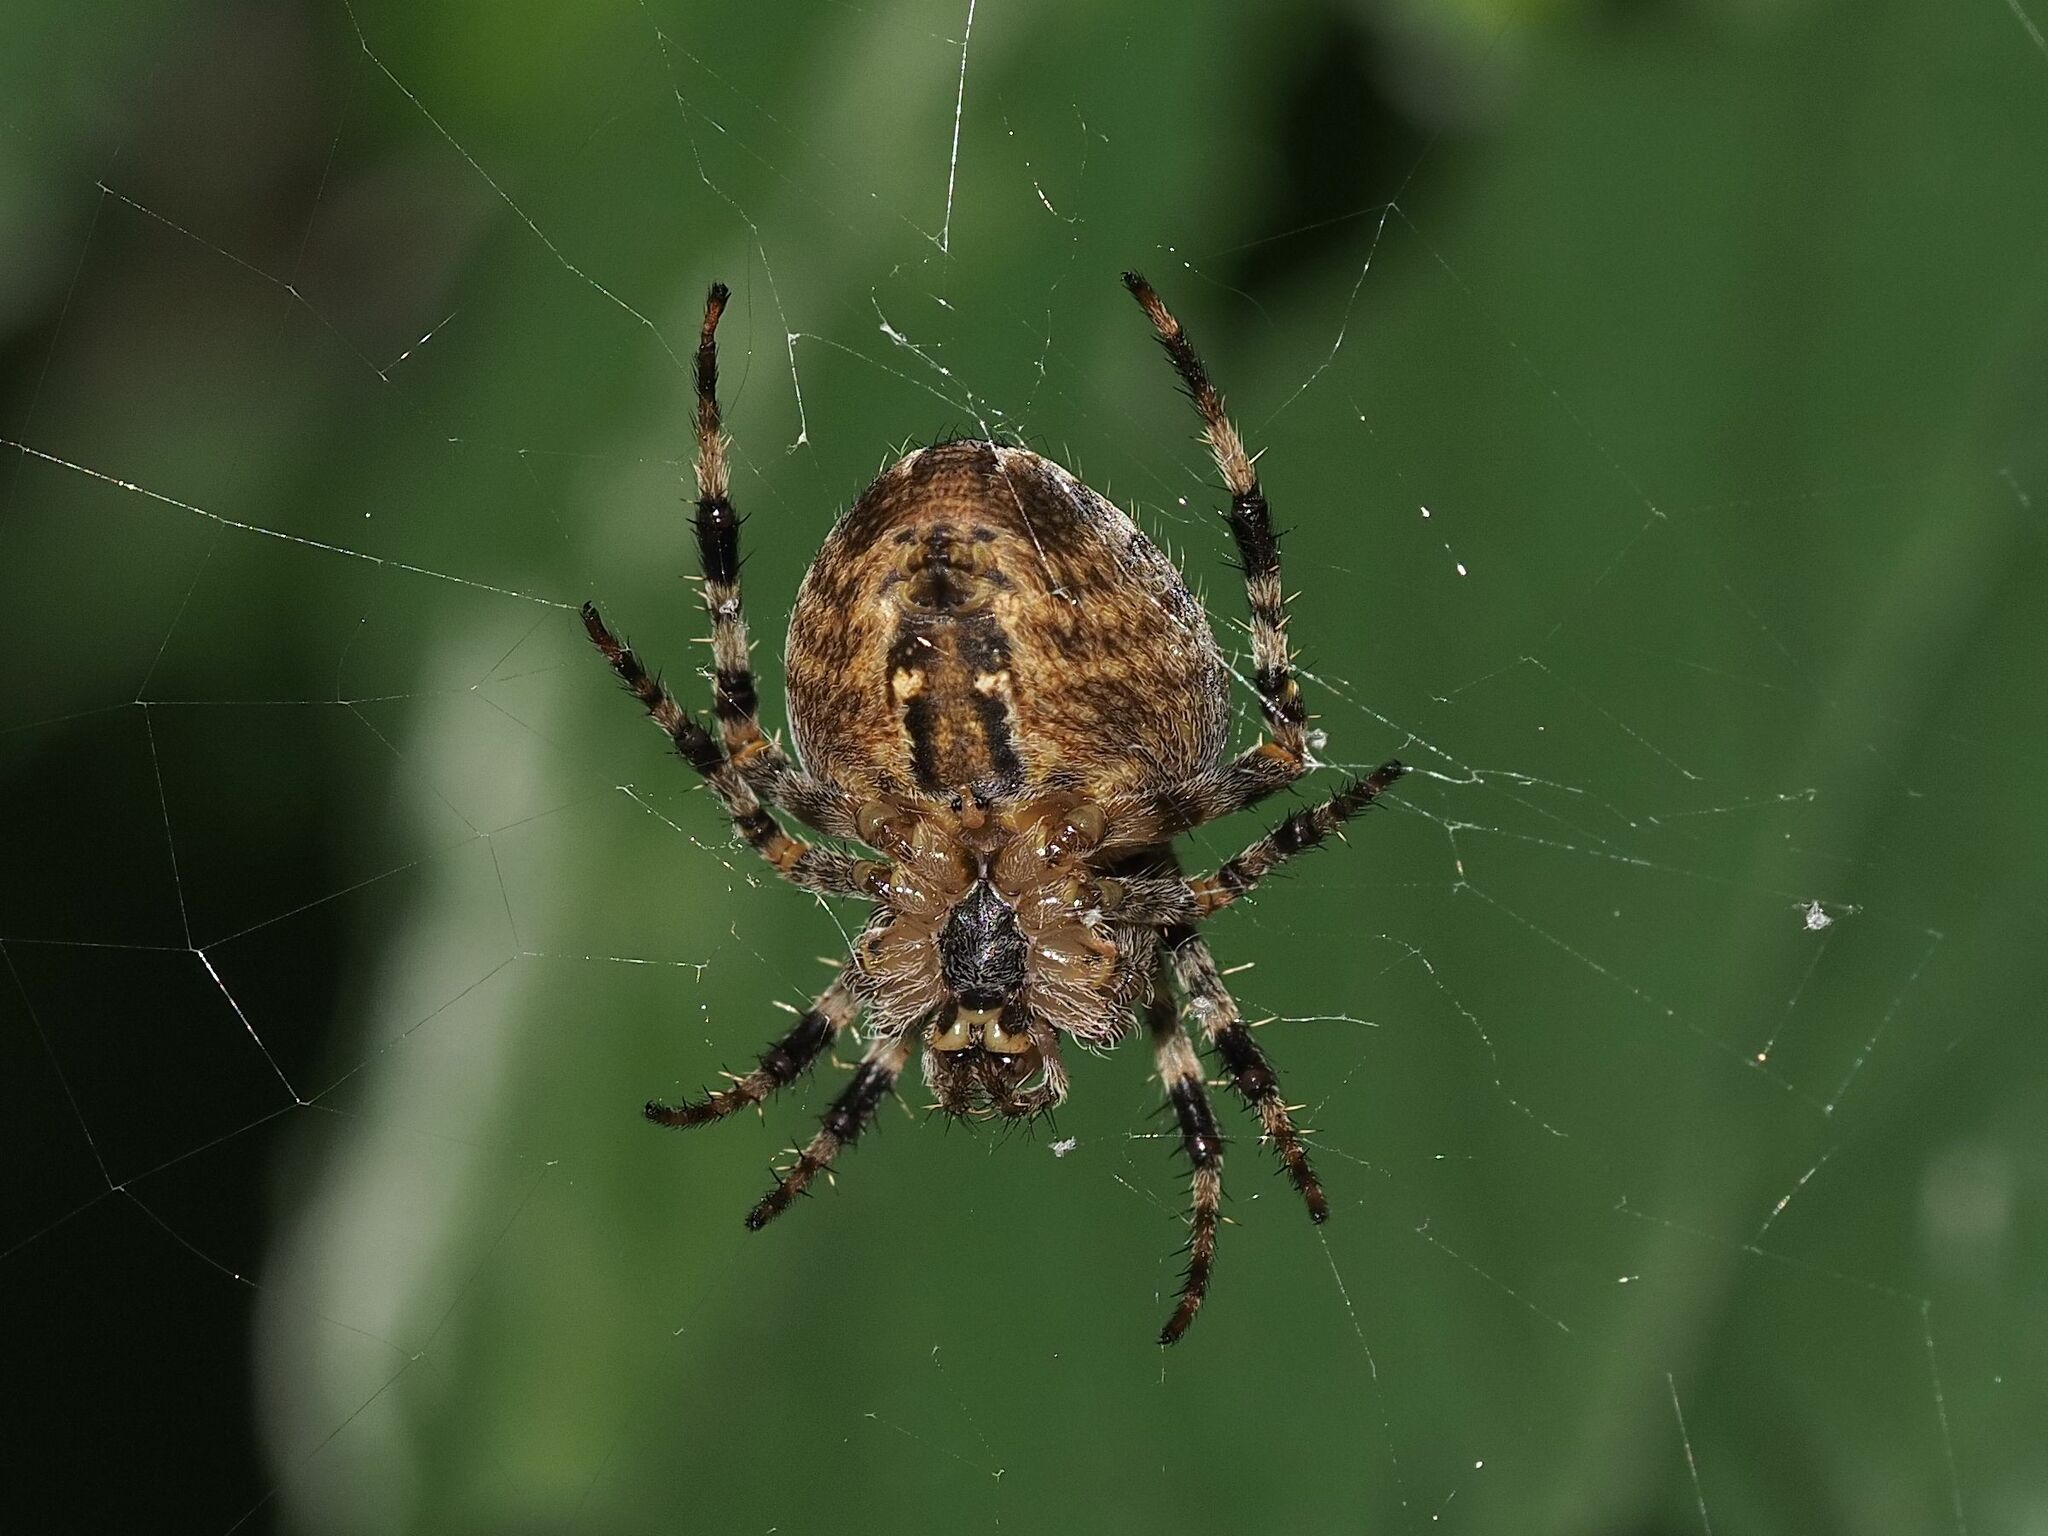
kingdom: Animalia
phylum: Arthropoda
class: Arachnida
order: Araneae
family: Araneidae
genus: Araneus
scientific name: Araneus diadematus
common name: Cross orbweaver
